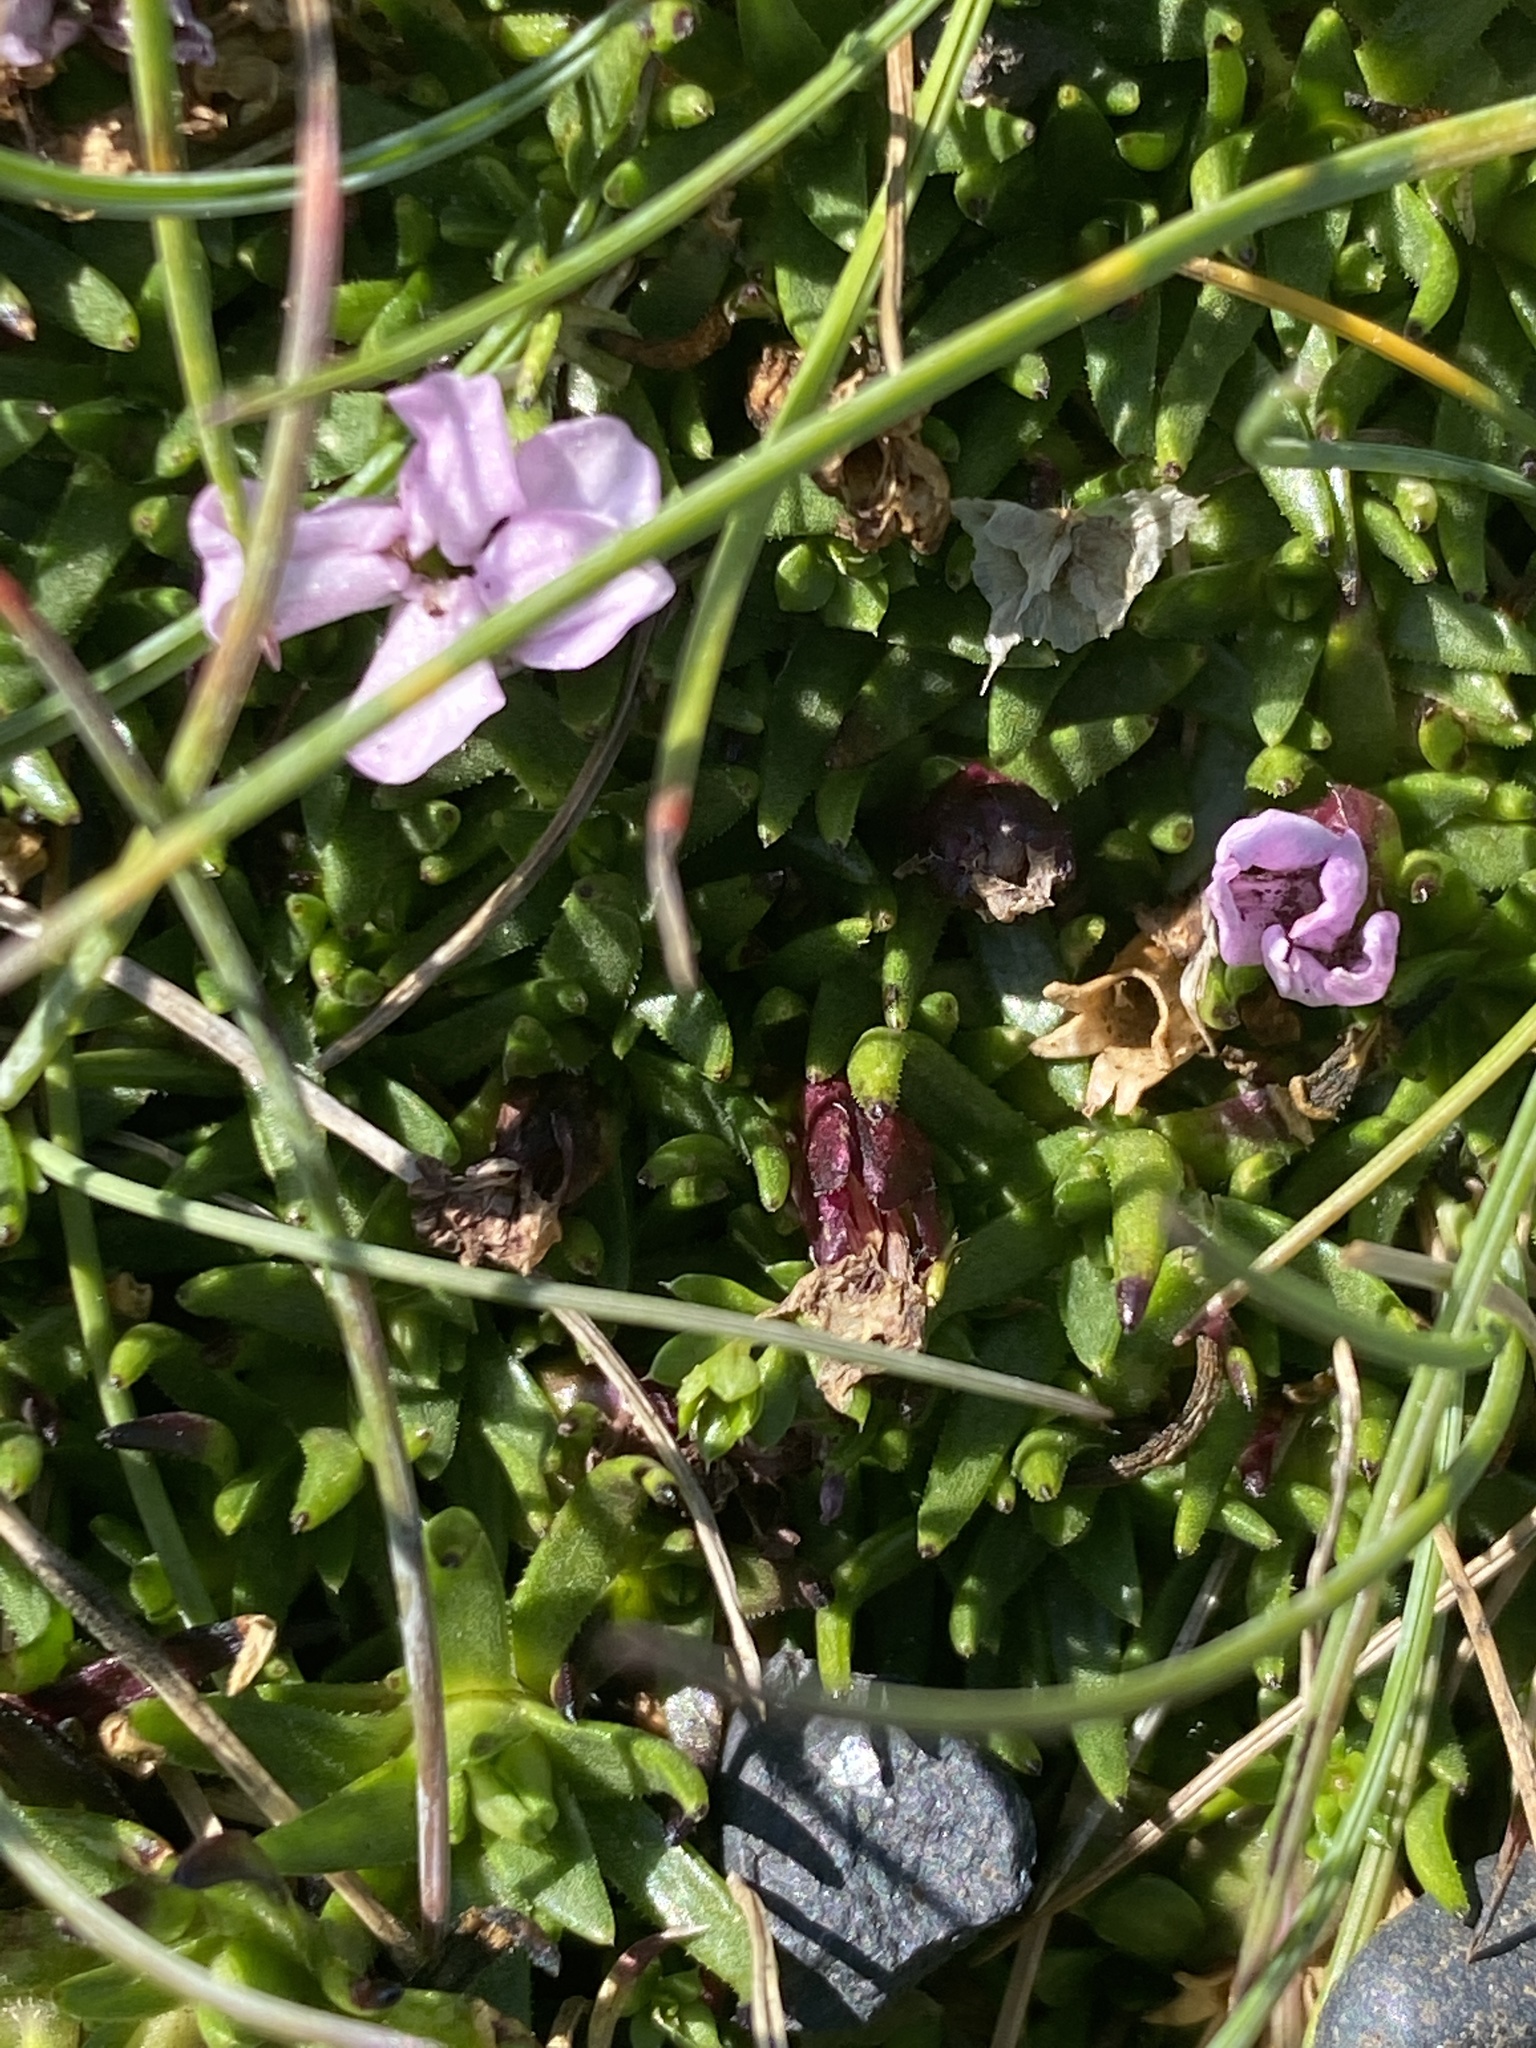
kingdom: Plantae
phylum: Tracheophyta
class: Magnoliopsida
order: Caryophyllales
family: Caryophyllaceae
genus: Silene
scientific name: Silene acaulis
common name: Moss campion
